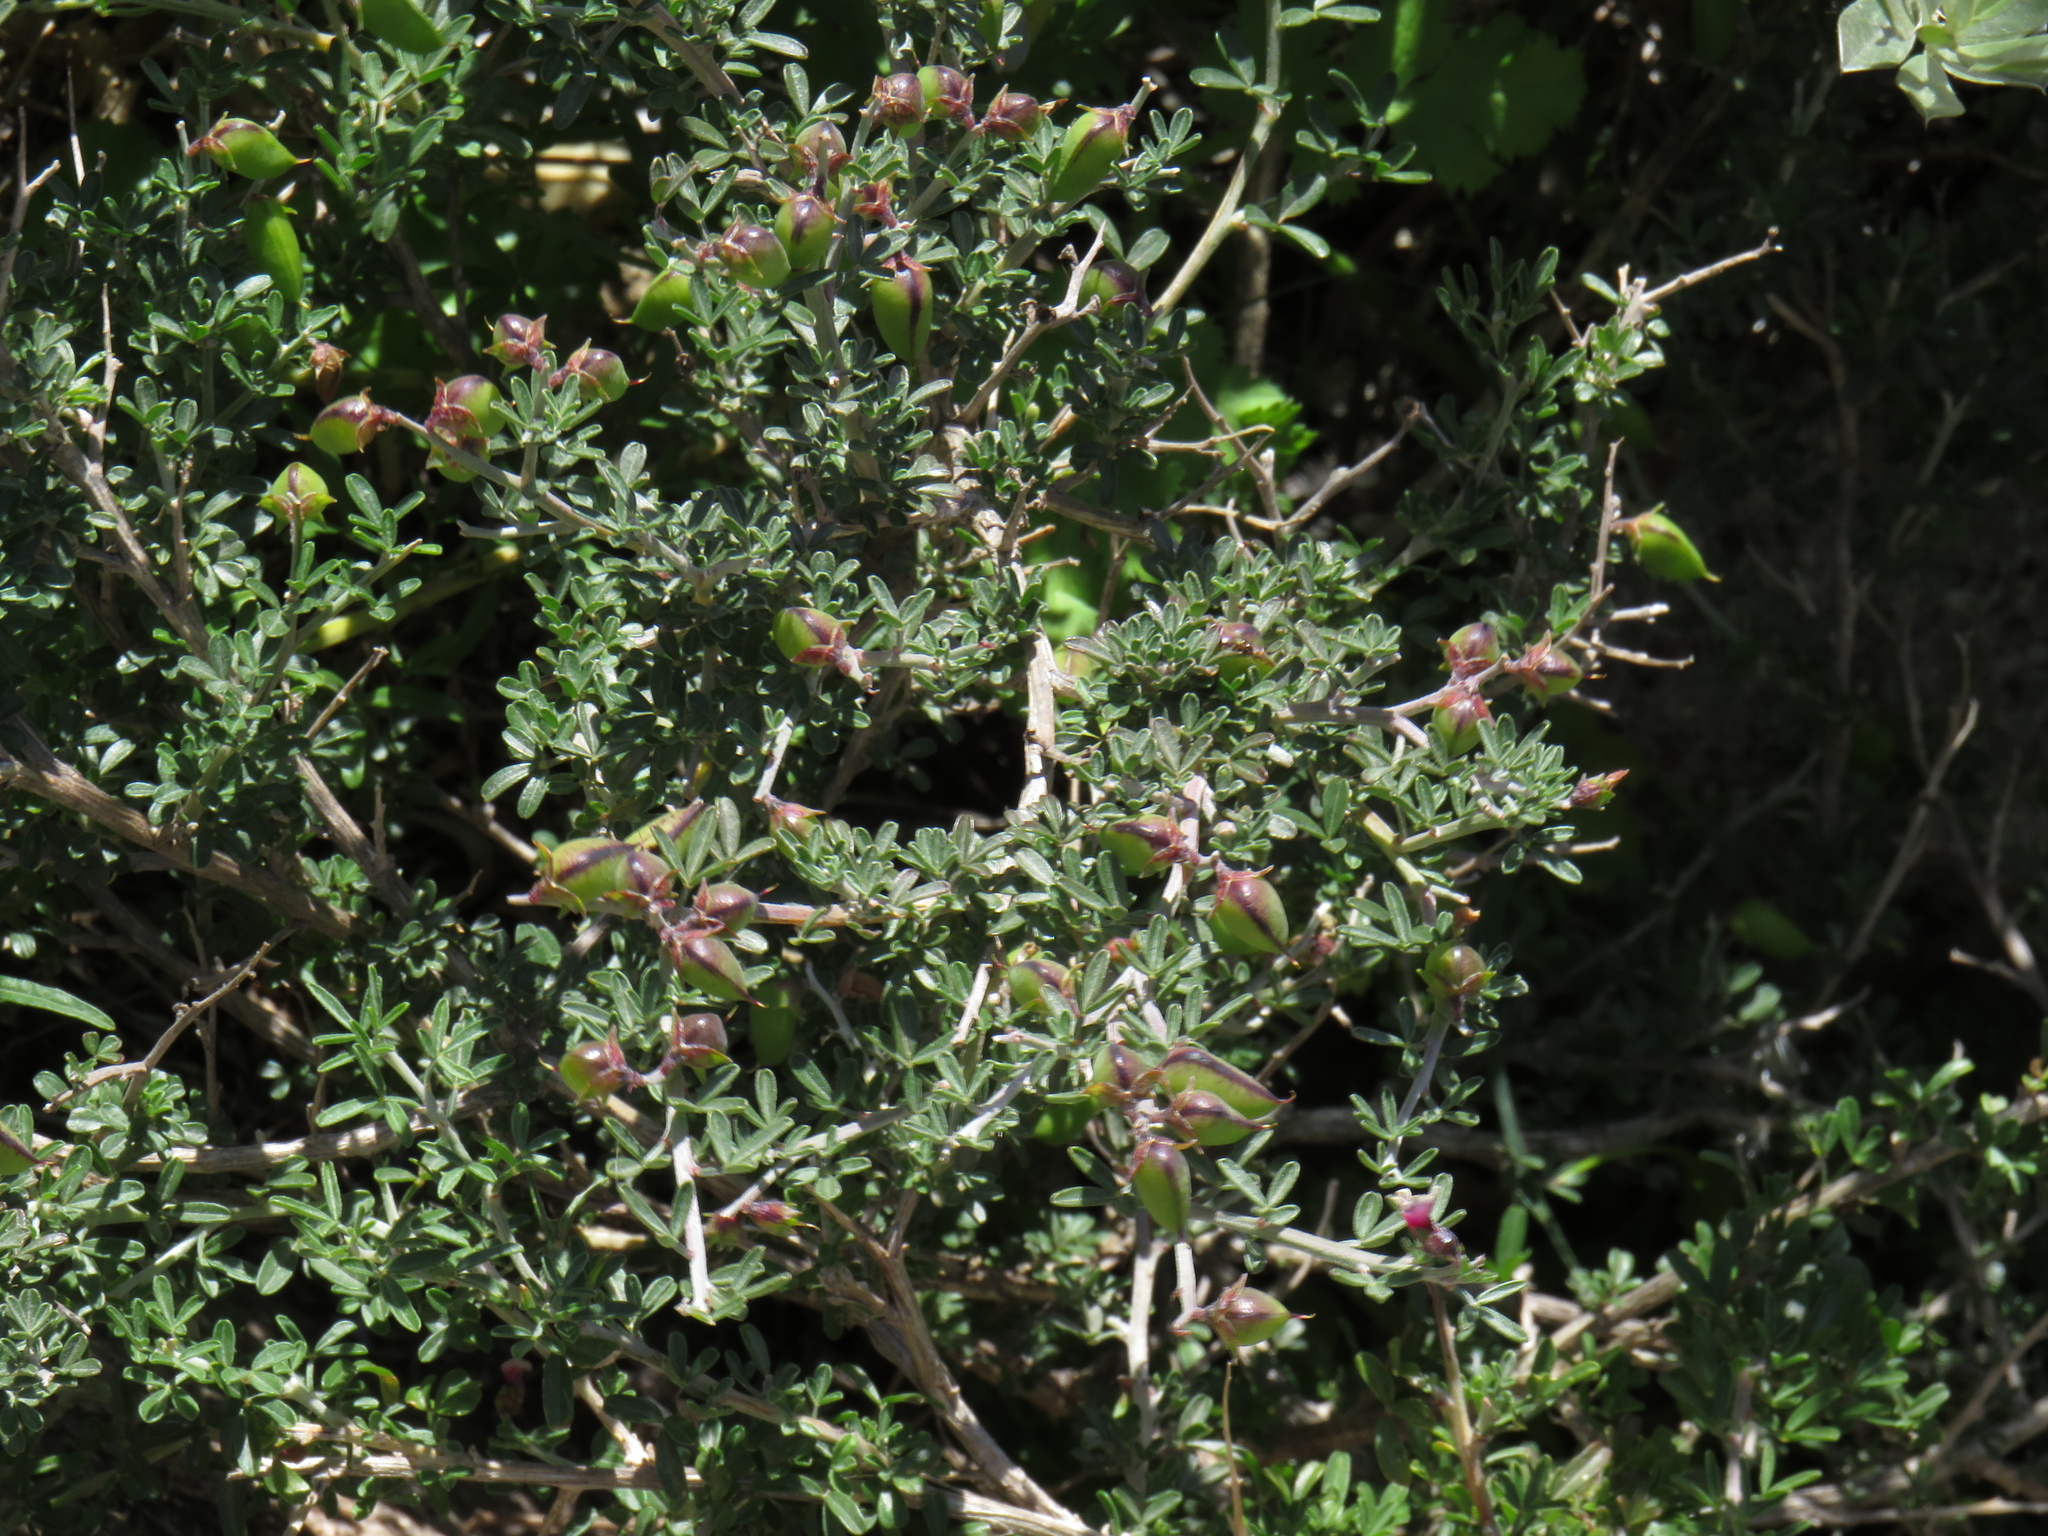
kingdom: Plantae
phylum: Tracheophyta
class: Magnoliopsida
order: Fabales
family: Fabaceae
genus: Wiborgiella
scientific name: Wiborgiella dahlgrenii
